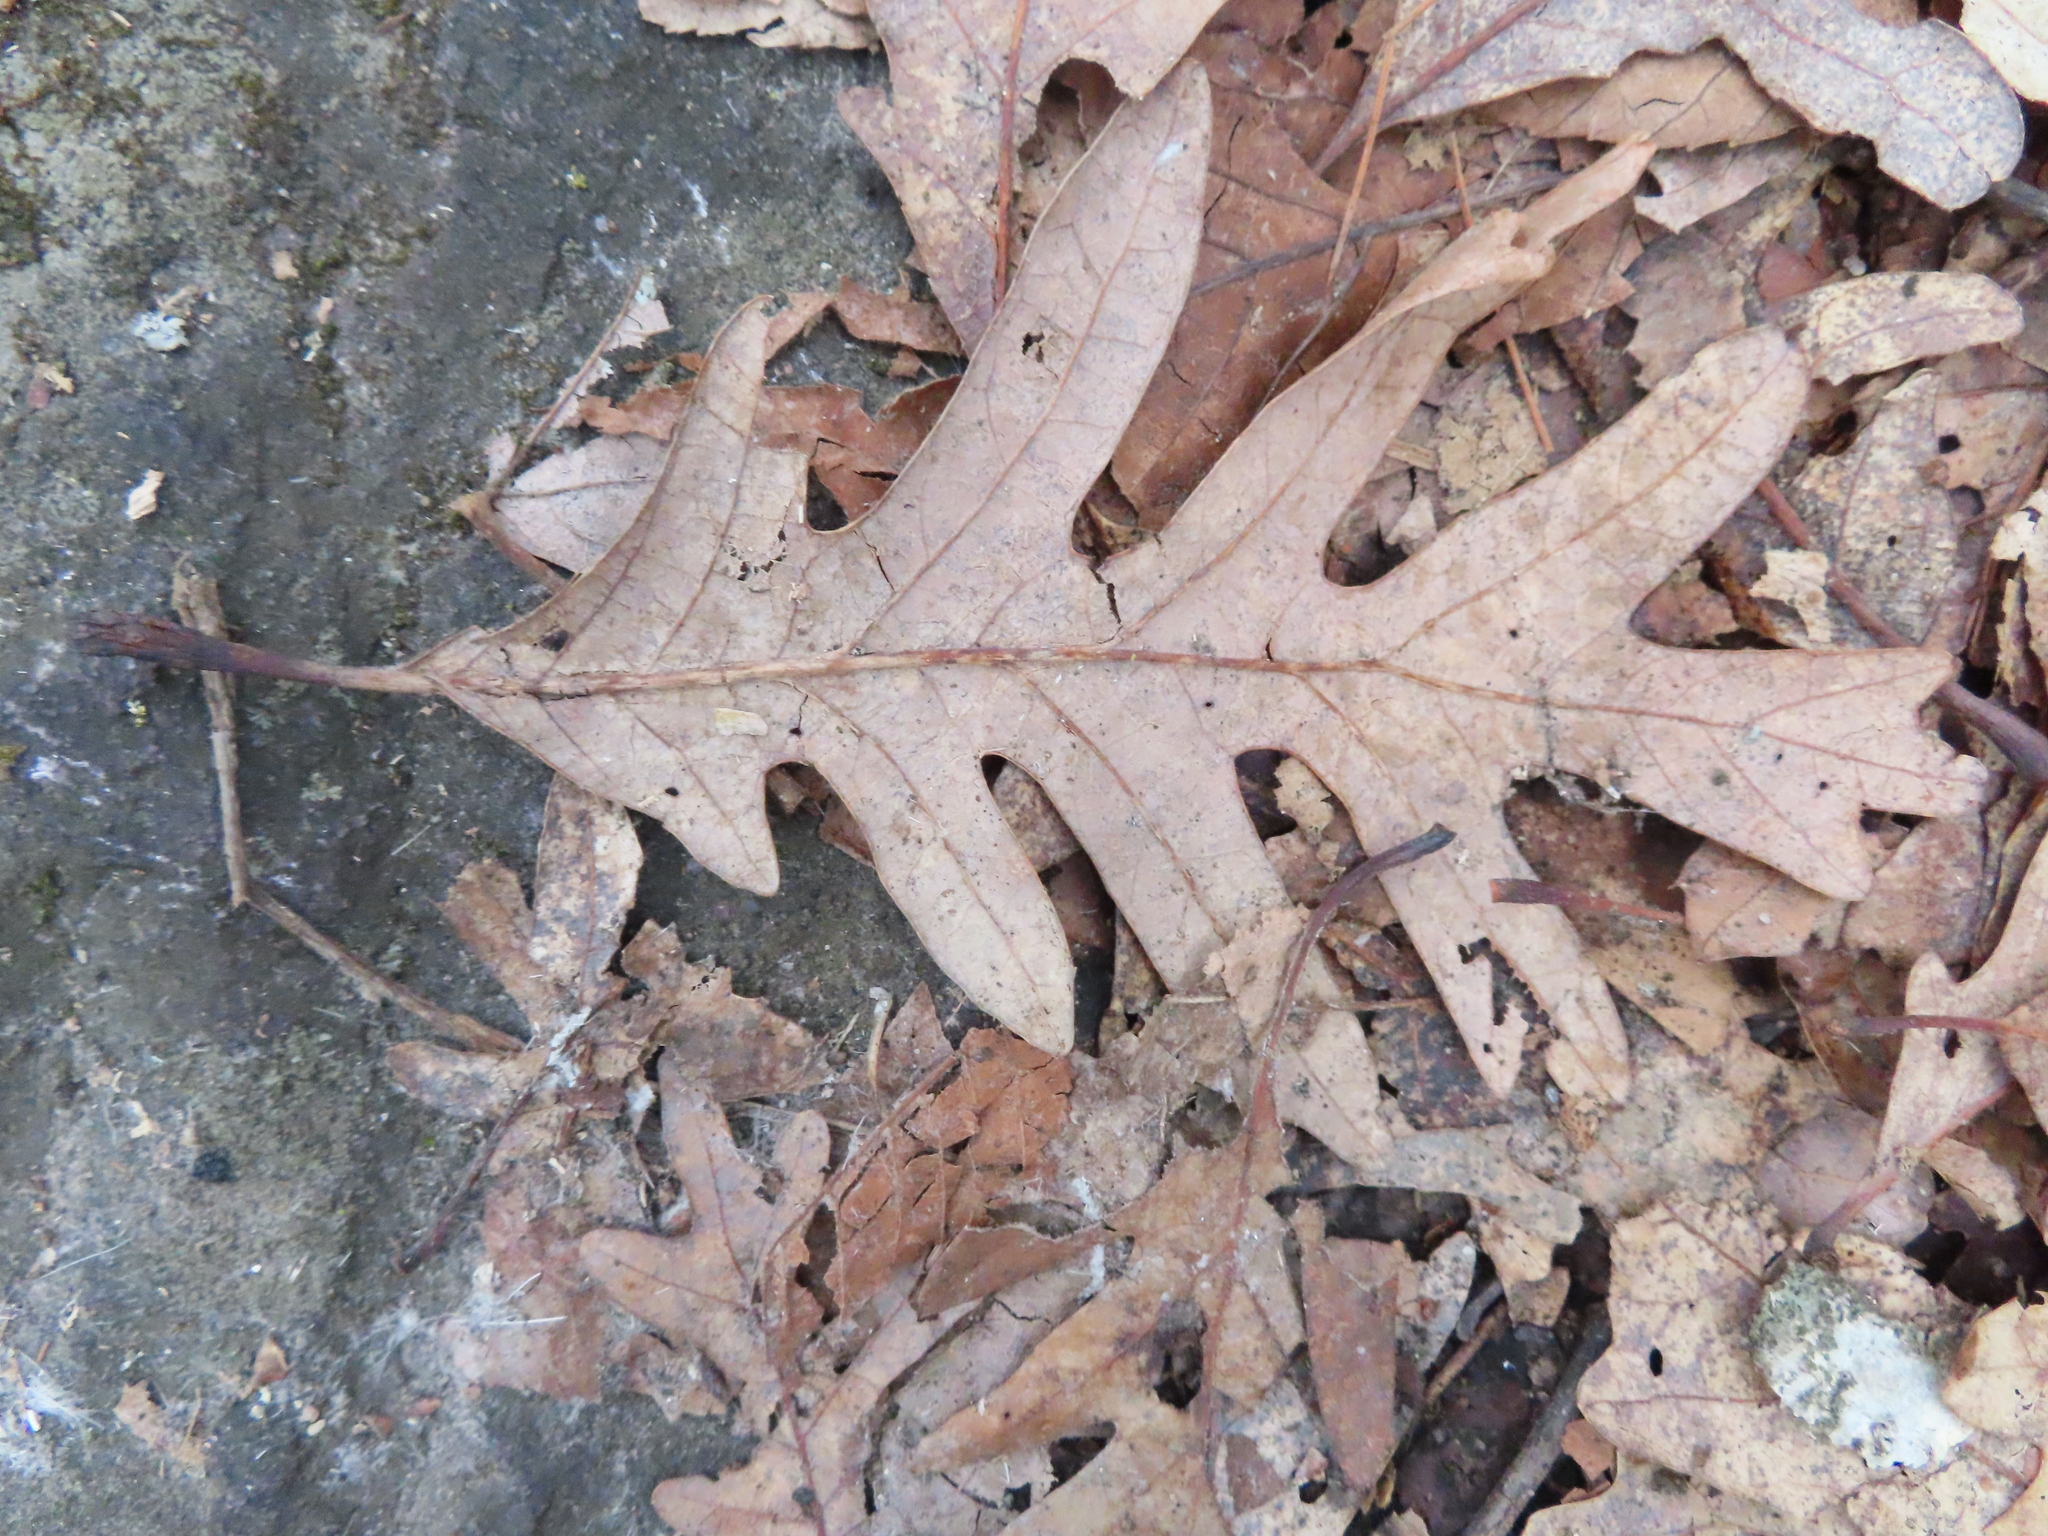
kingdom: Plantae
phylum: Tracheophyta
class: Magnoliopsida
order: Fagales
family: Fagaceae
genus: Quercus
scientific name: Quercus alba
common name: White oak
